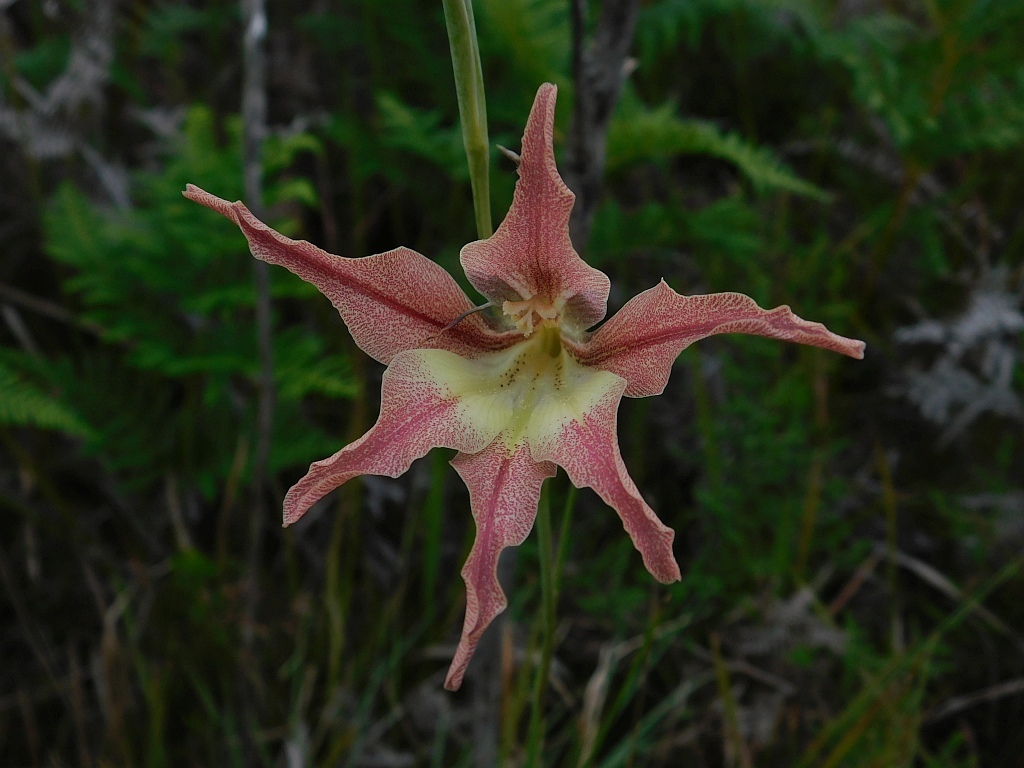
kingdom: Plantae
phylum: Tracheophyta
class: Liliopsida
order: Asparagales
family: Iridaceae
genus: Gladiolus
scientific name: Gladiolus liliaceus
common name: Large brown afrikaner
